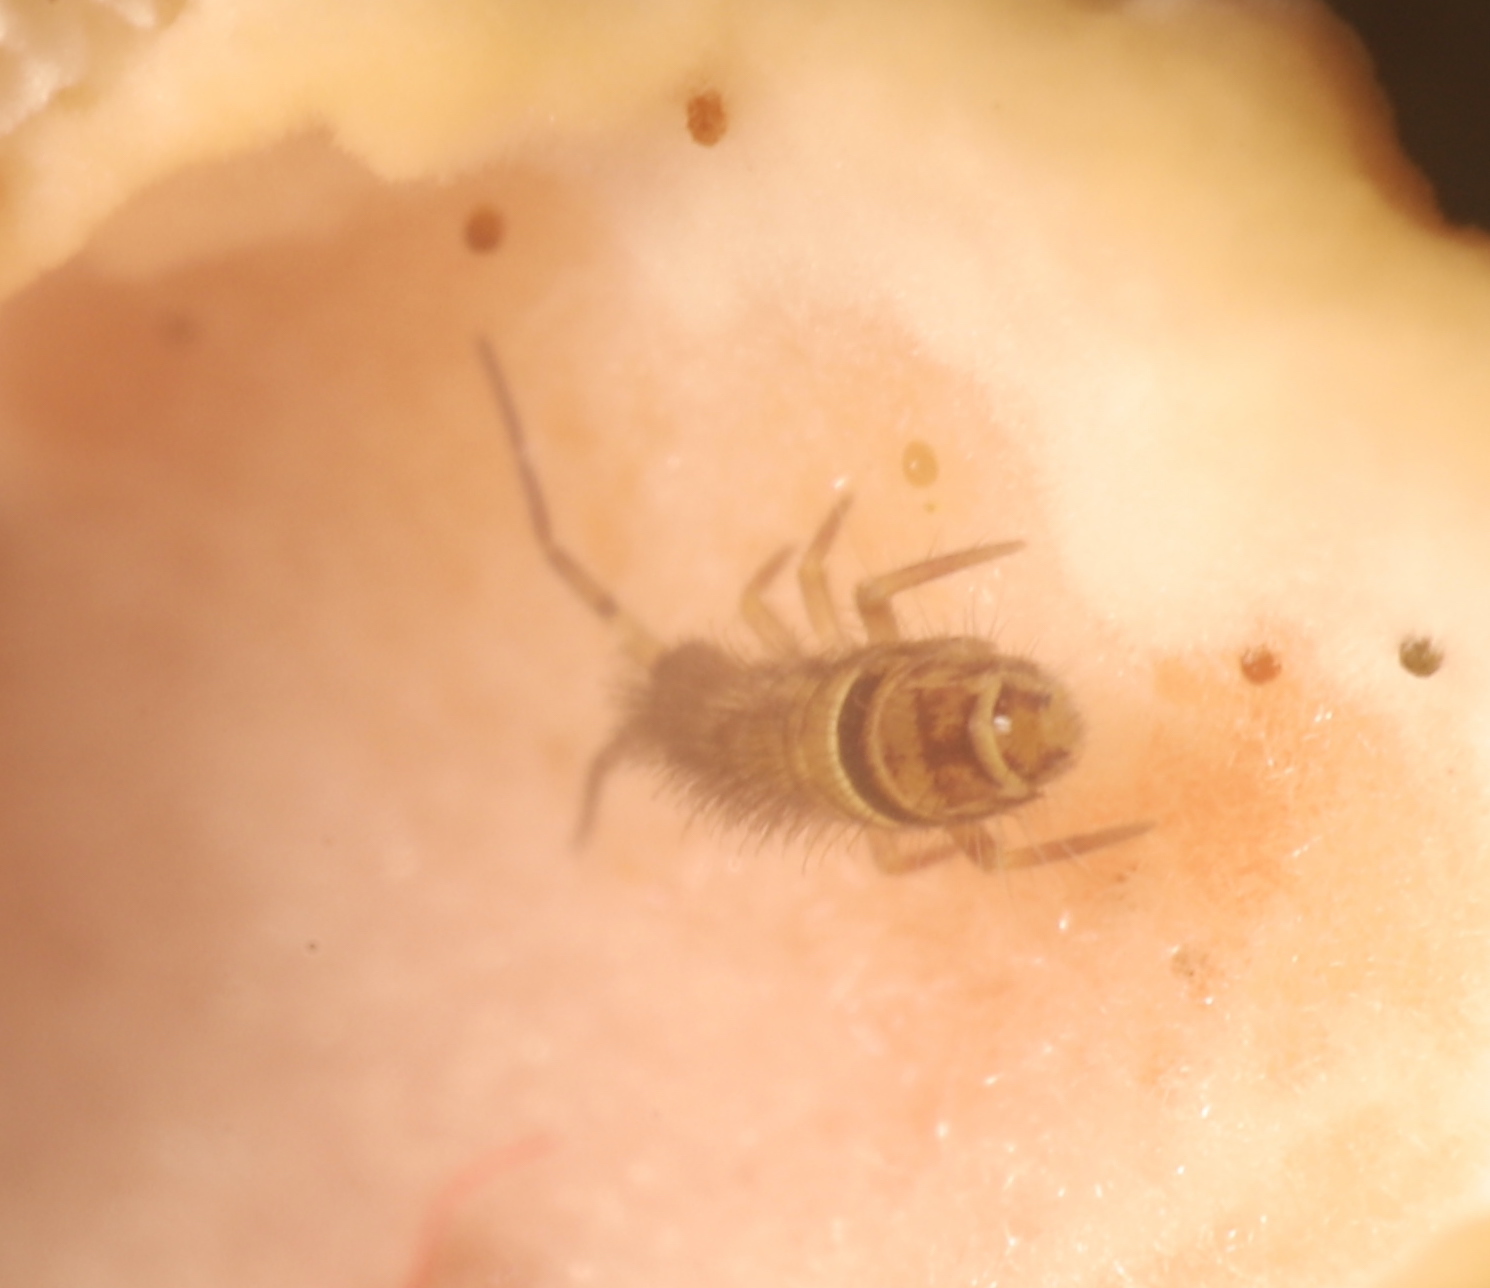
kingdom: Animalia
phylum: Arthropoda
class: Collembola
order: Entomobryomorpha
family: Orchesellidae
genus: Orchesella
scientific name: Orchesella cincta
